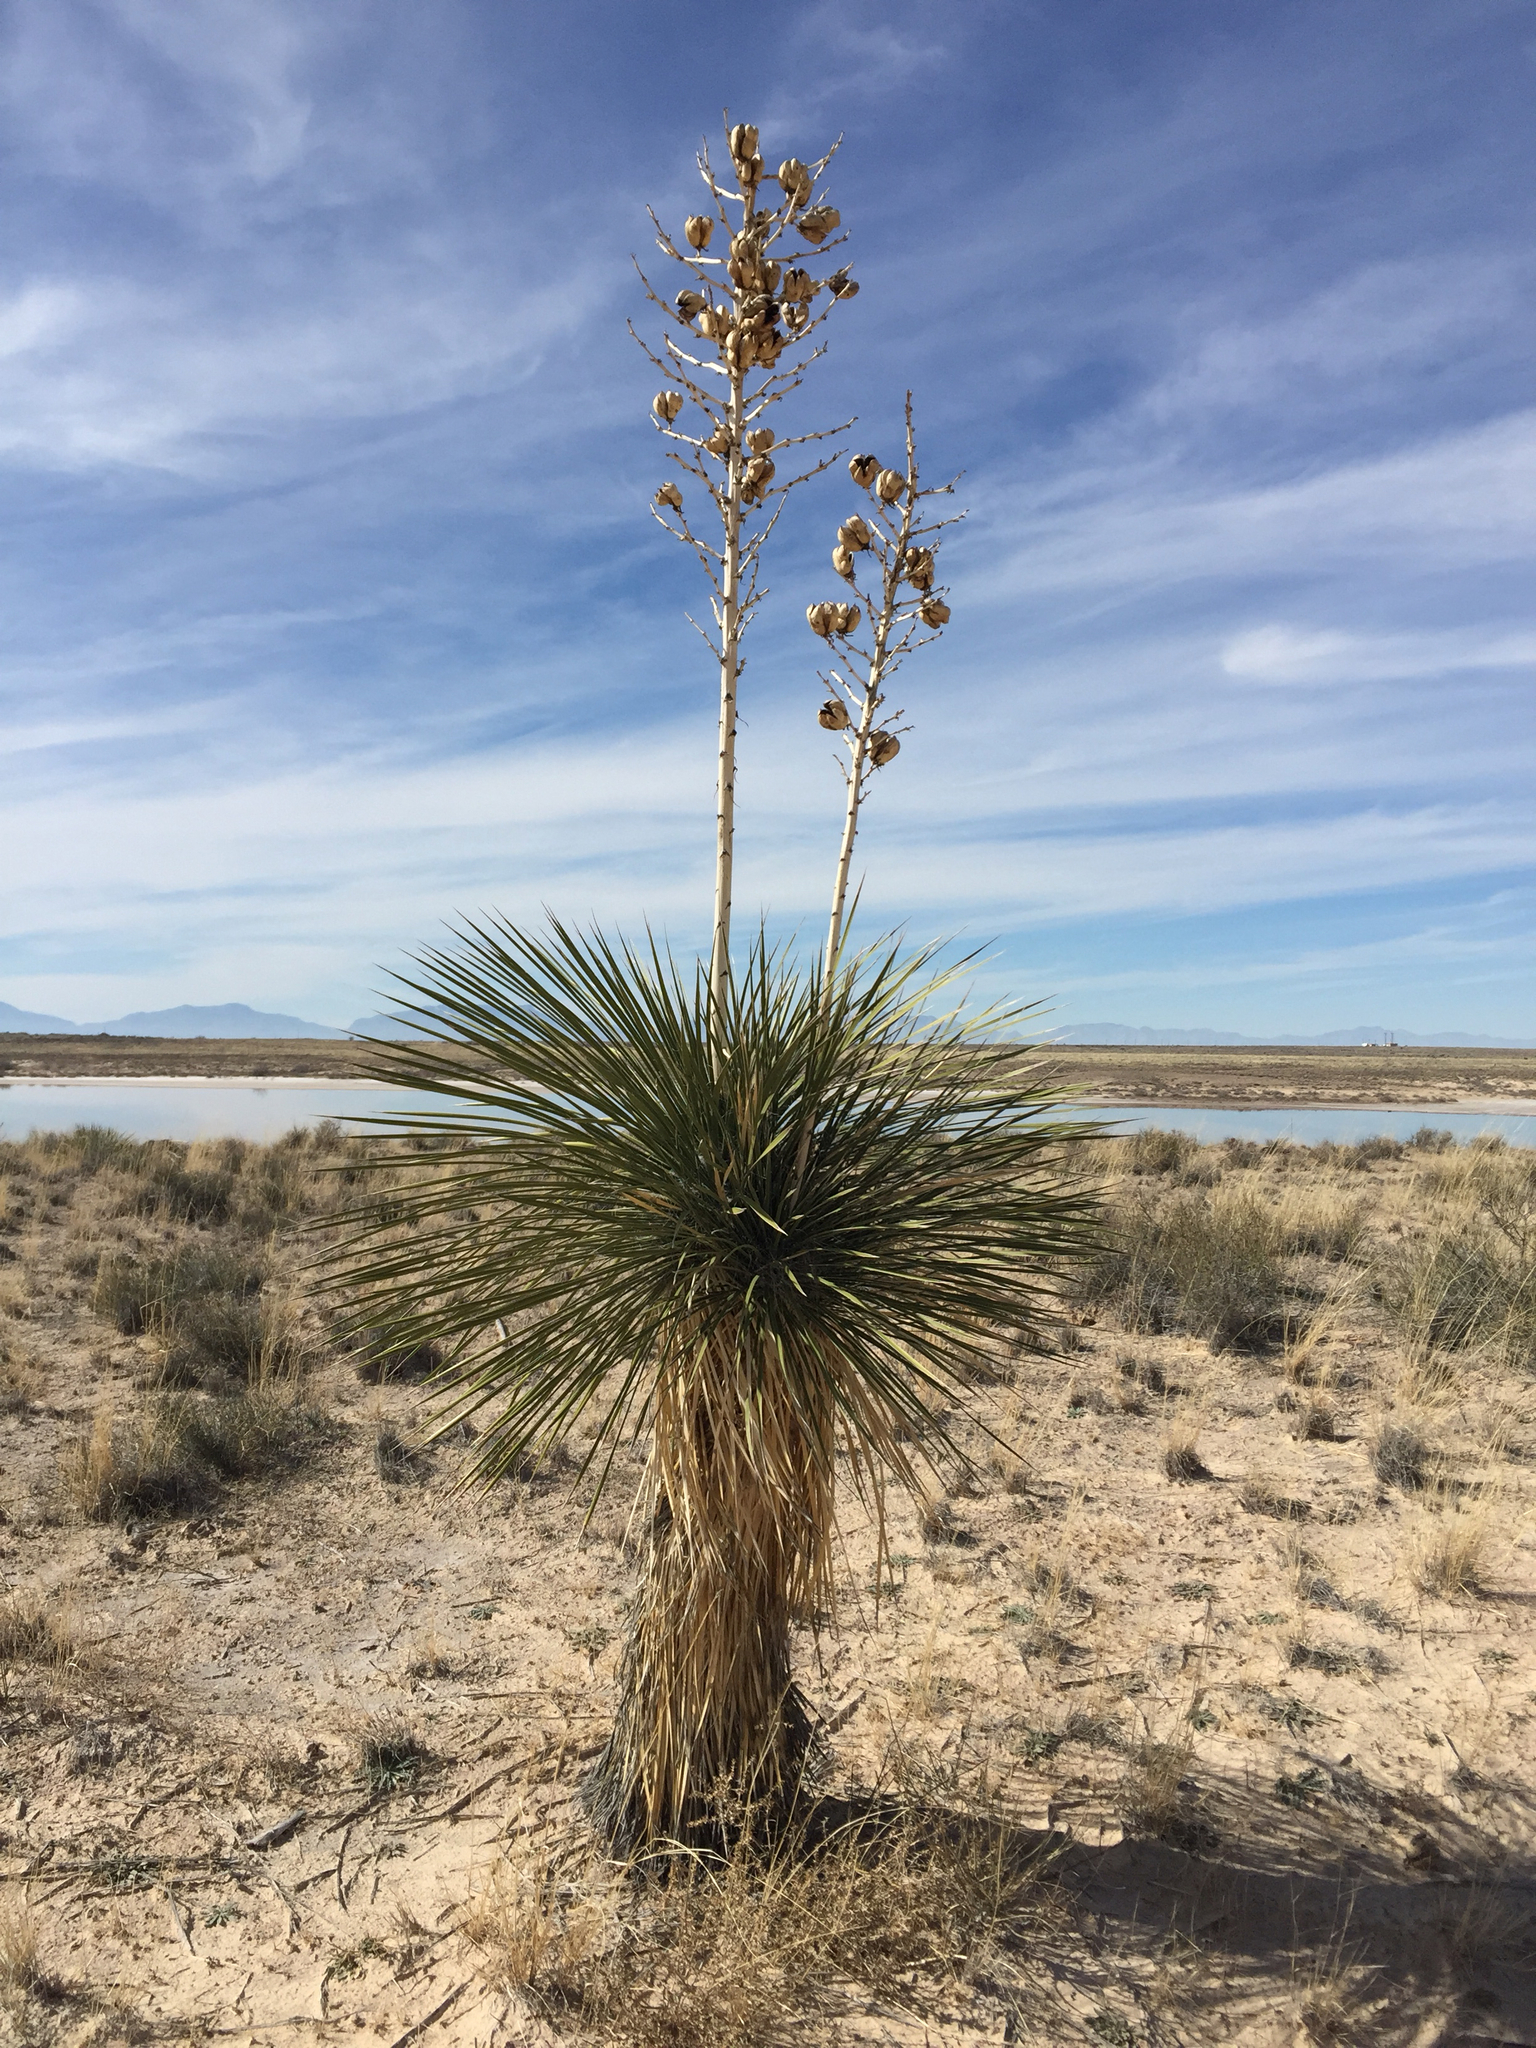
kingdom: Plantae
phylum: Tracheophyta
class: Liliopsida
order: Asparagales
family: Asparagaceae
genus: Yucca
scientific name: Yucca elata
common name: Palmella
